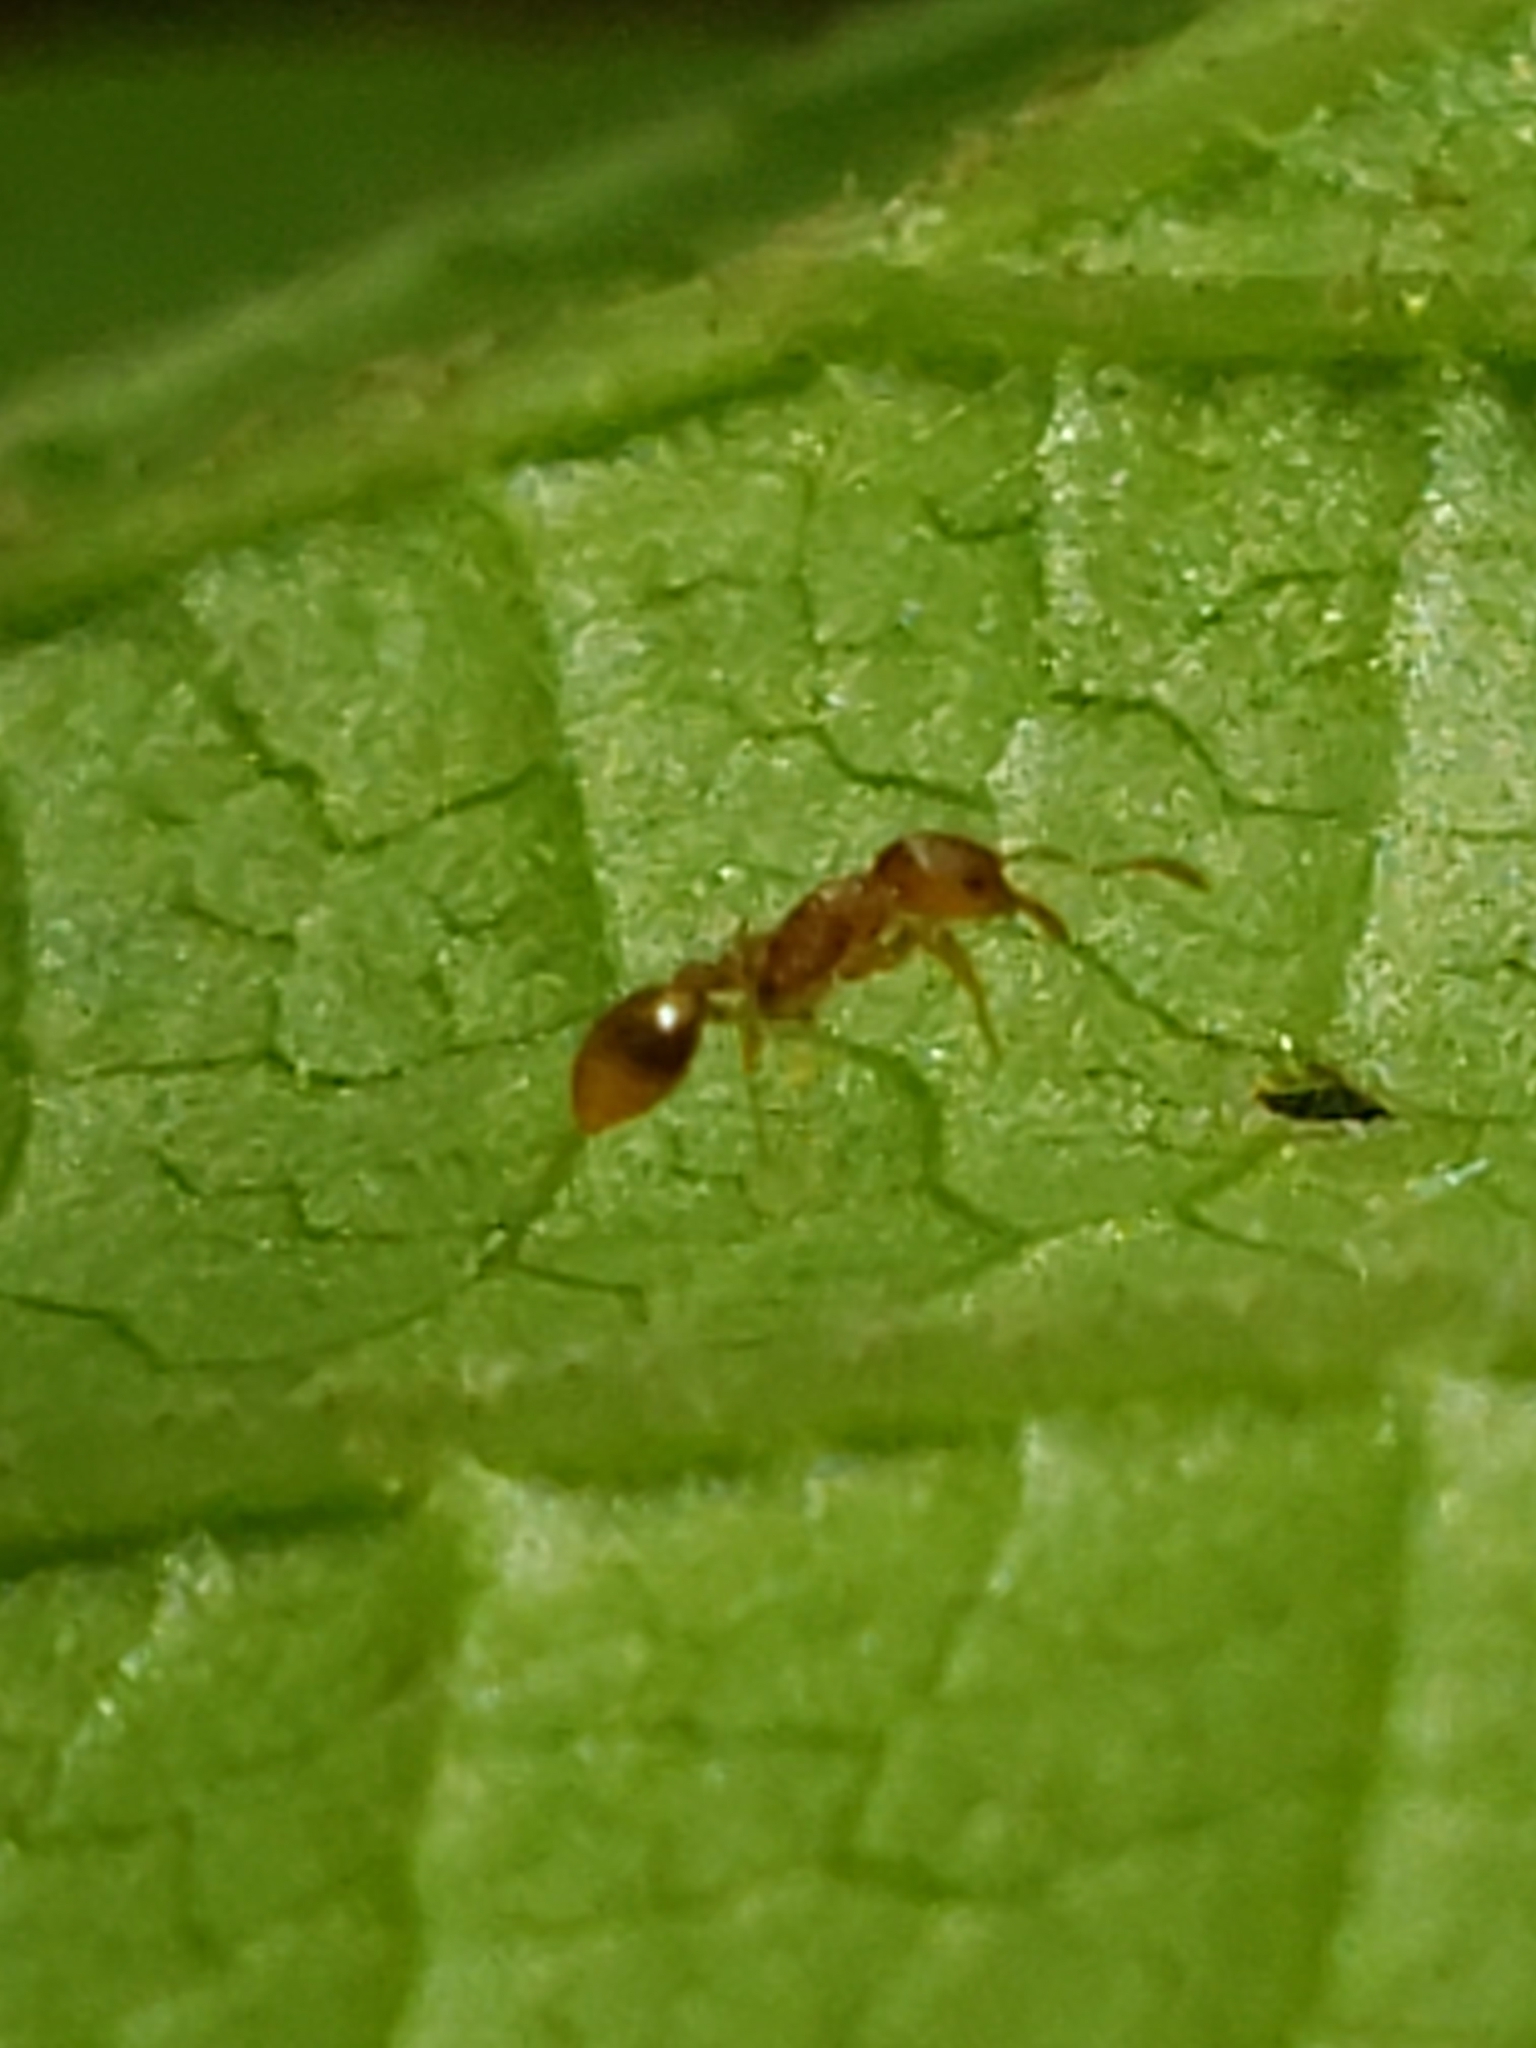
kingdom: Animalia
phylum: Arthropoda
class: Insecta
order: Hymenoptera
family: Formicidae
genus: Temnothorax
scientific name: Temnothorax curvispinosus
